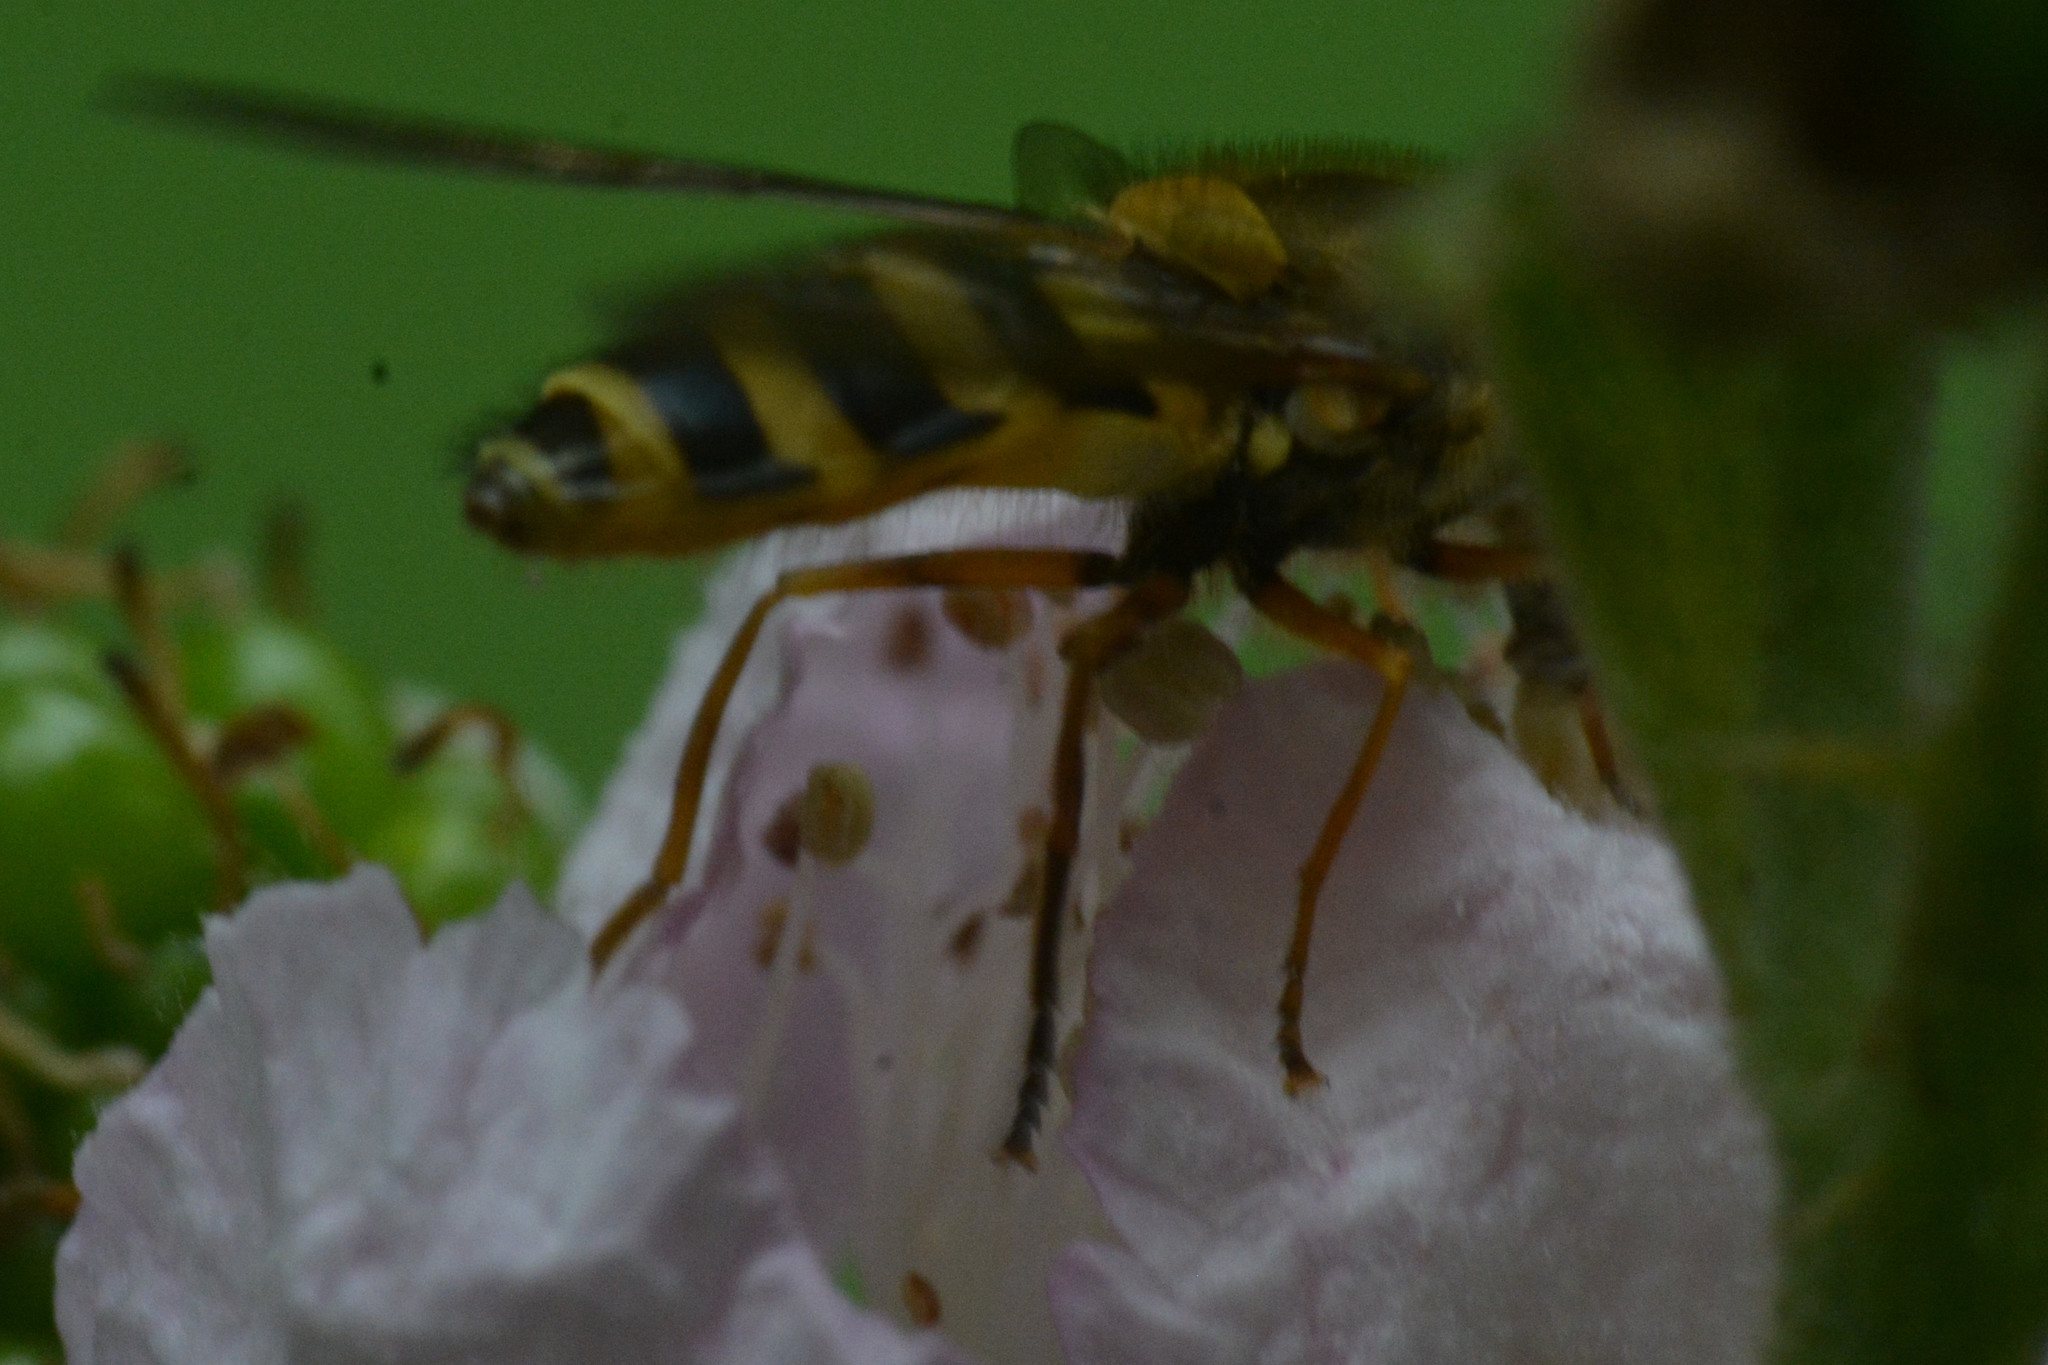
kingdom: Animalia
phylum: Arthropoda
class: Insecta
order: Diptera
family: Syrphidae
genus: Syrphus
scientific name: Syrphus ribesii
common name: Common flower fly
